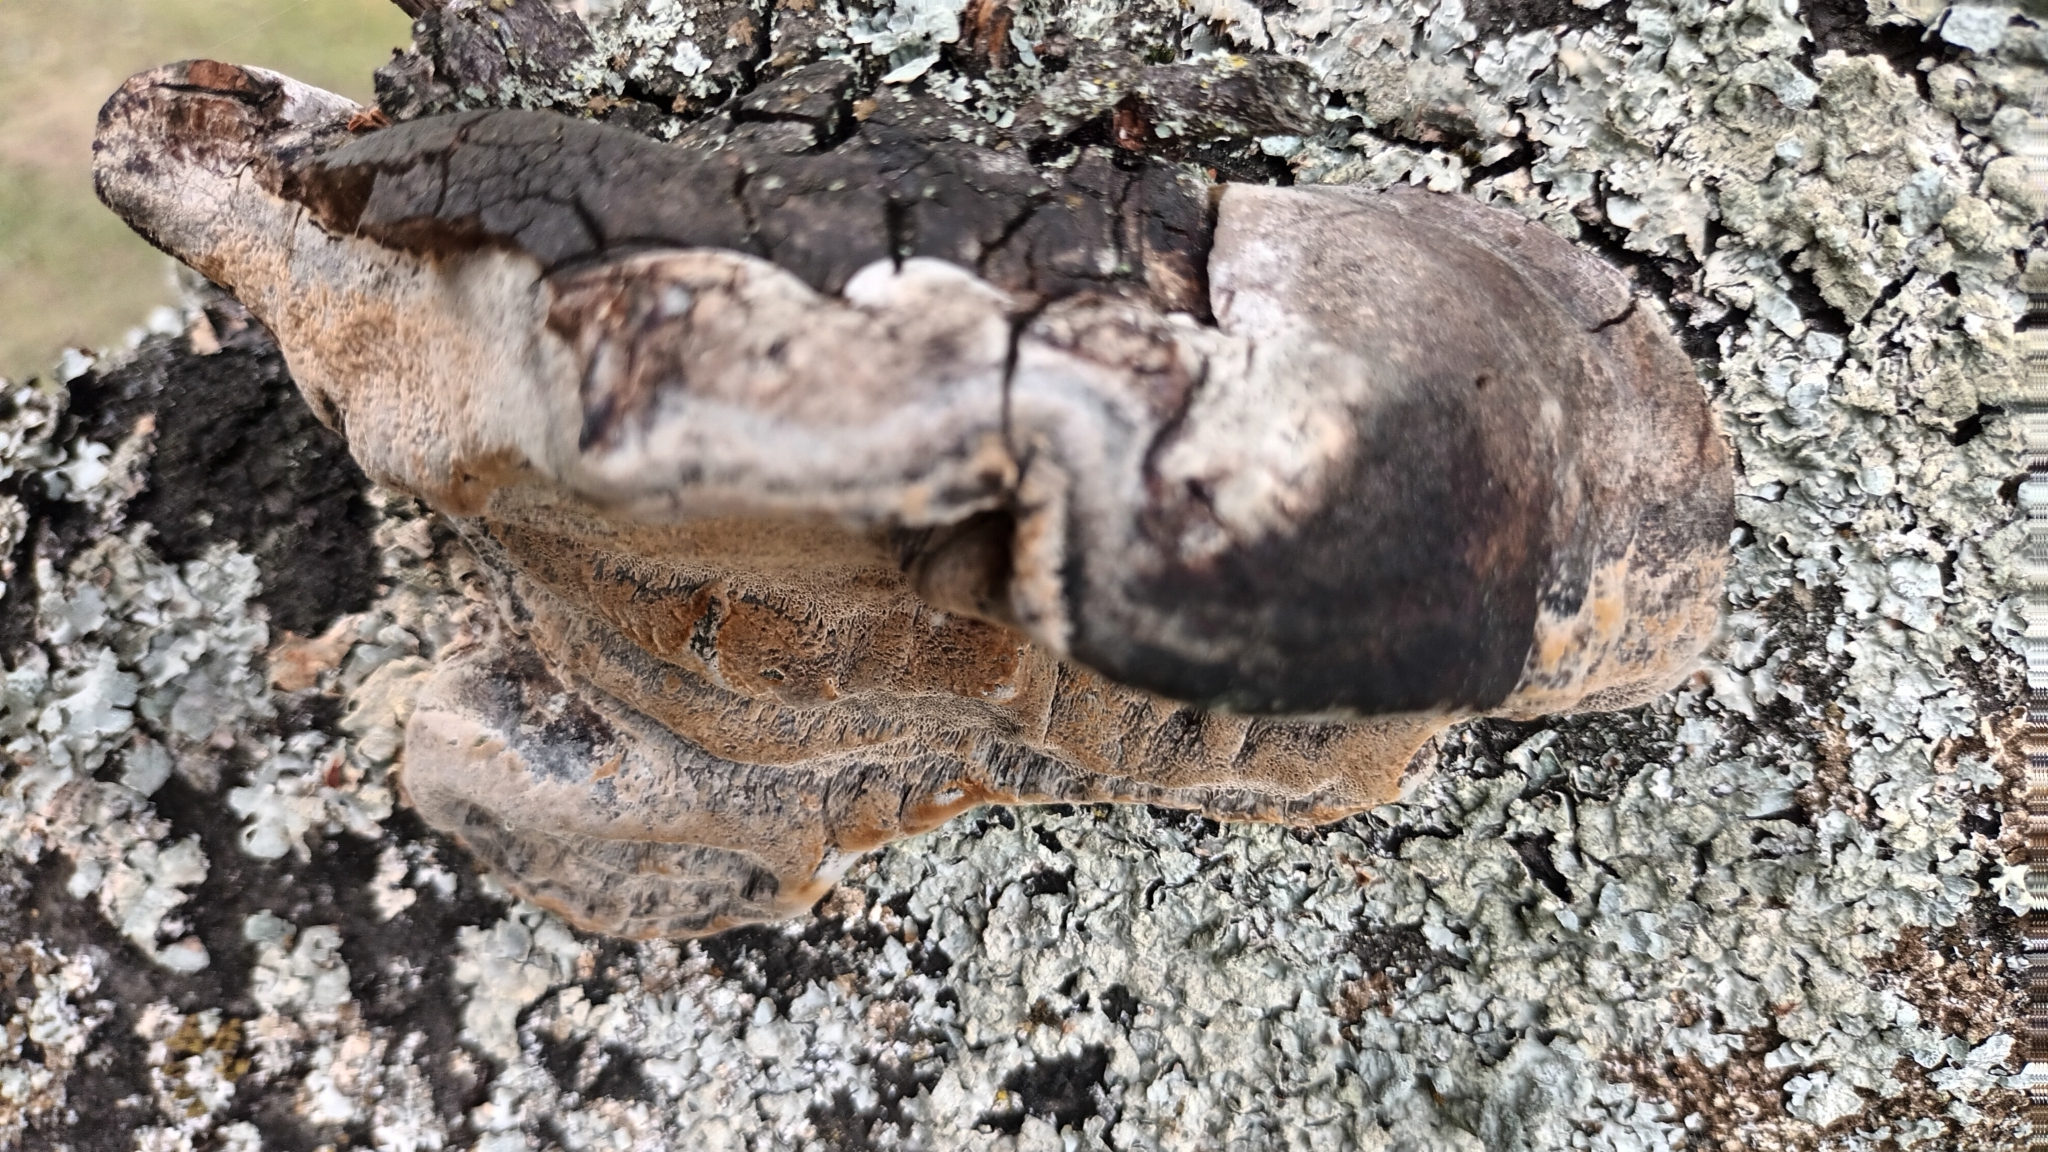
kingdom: Fungi
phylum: Basidiomycota
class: Agaricomycetes
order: Hymenochaetales
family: Hymenochaetaceae
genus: Phellinus
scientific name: Phellinus pomaceus
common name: Cushion bracket
